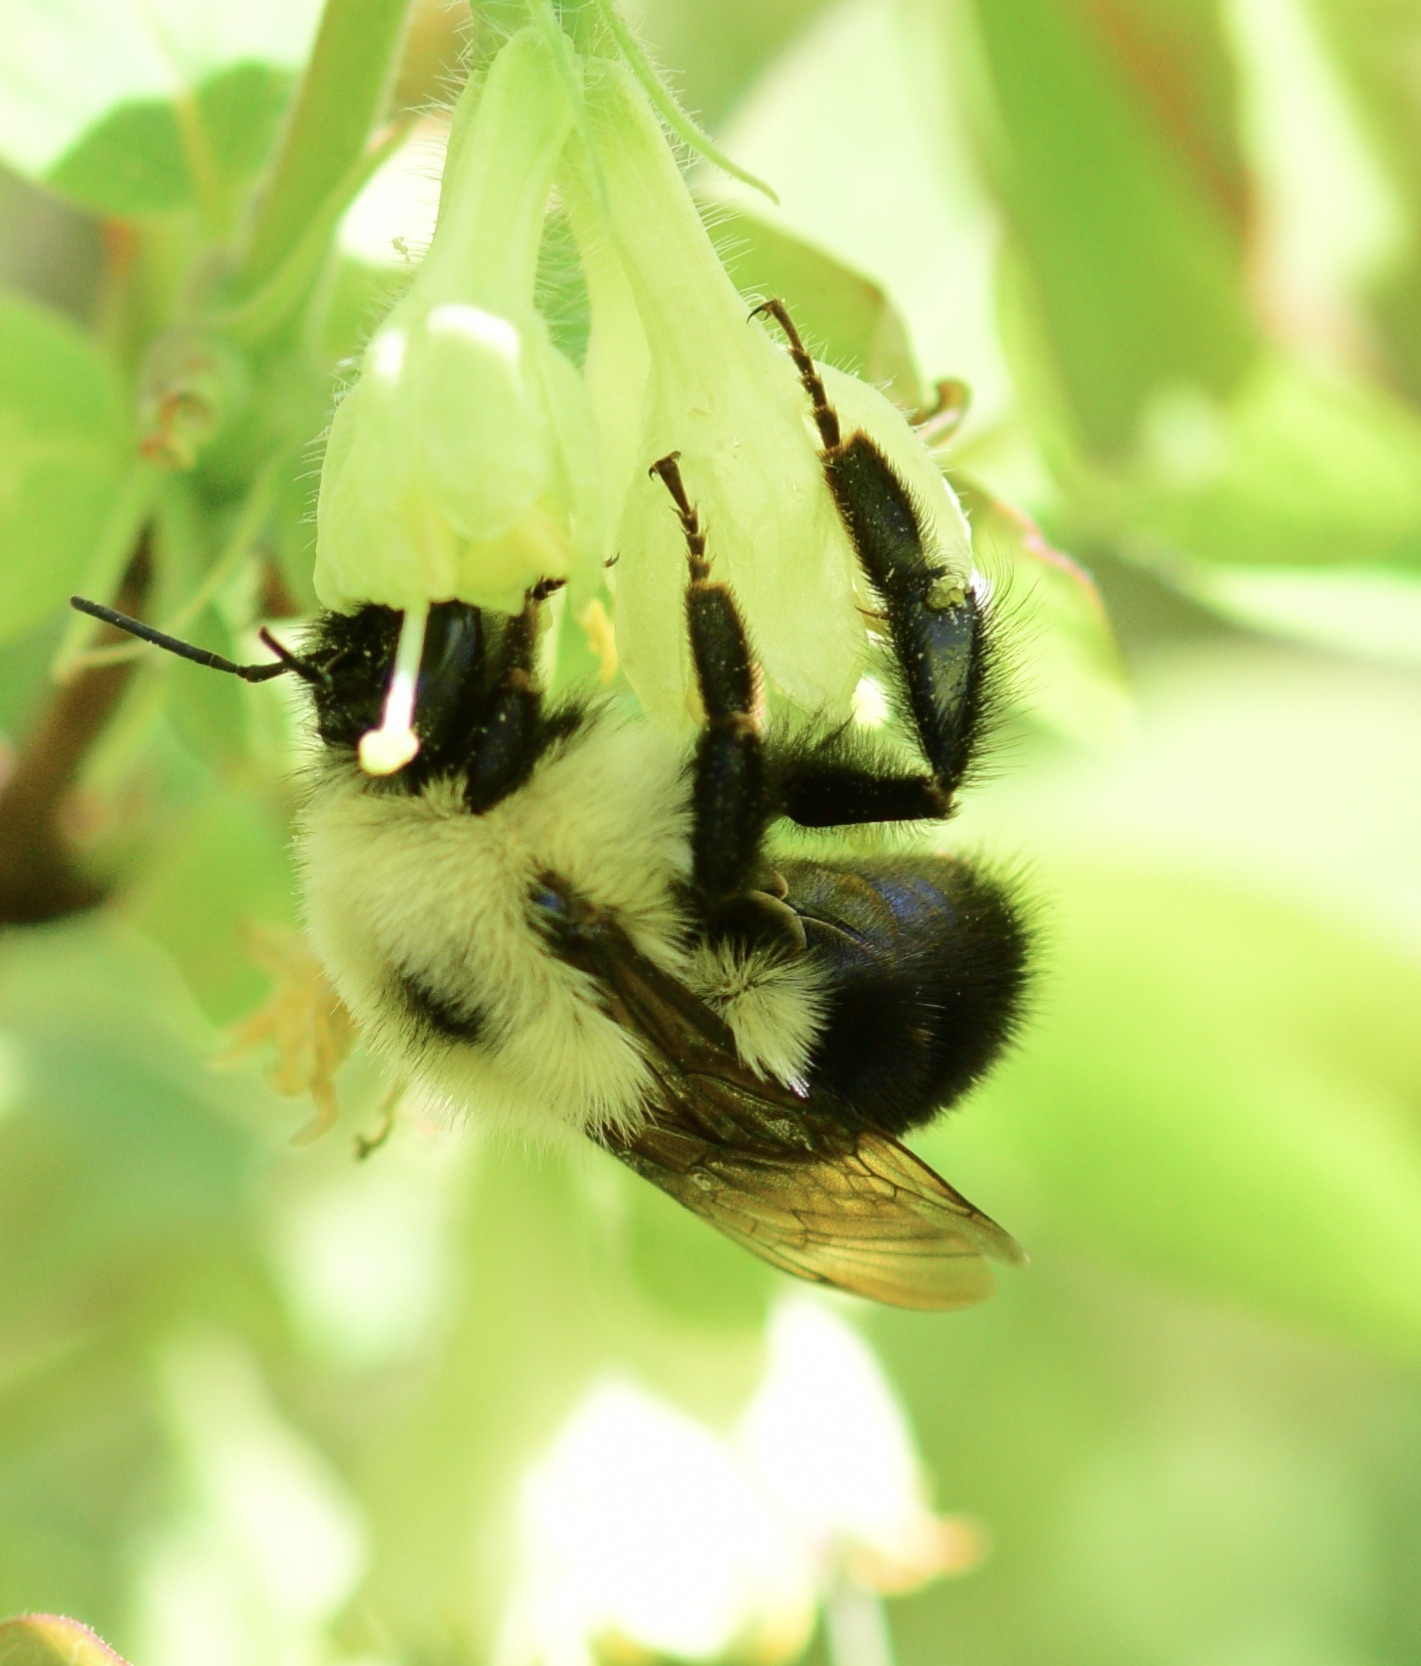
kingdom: Animalia
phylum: Arthropoda
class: Insecta
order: Hymenoptera
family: Apidae
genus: Bombus
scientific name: Bombus bimaculatus
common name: Two-spotted bumble bee
